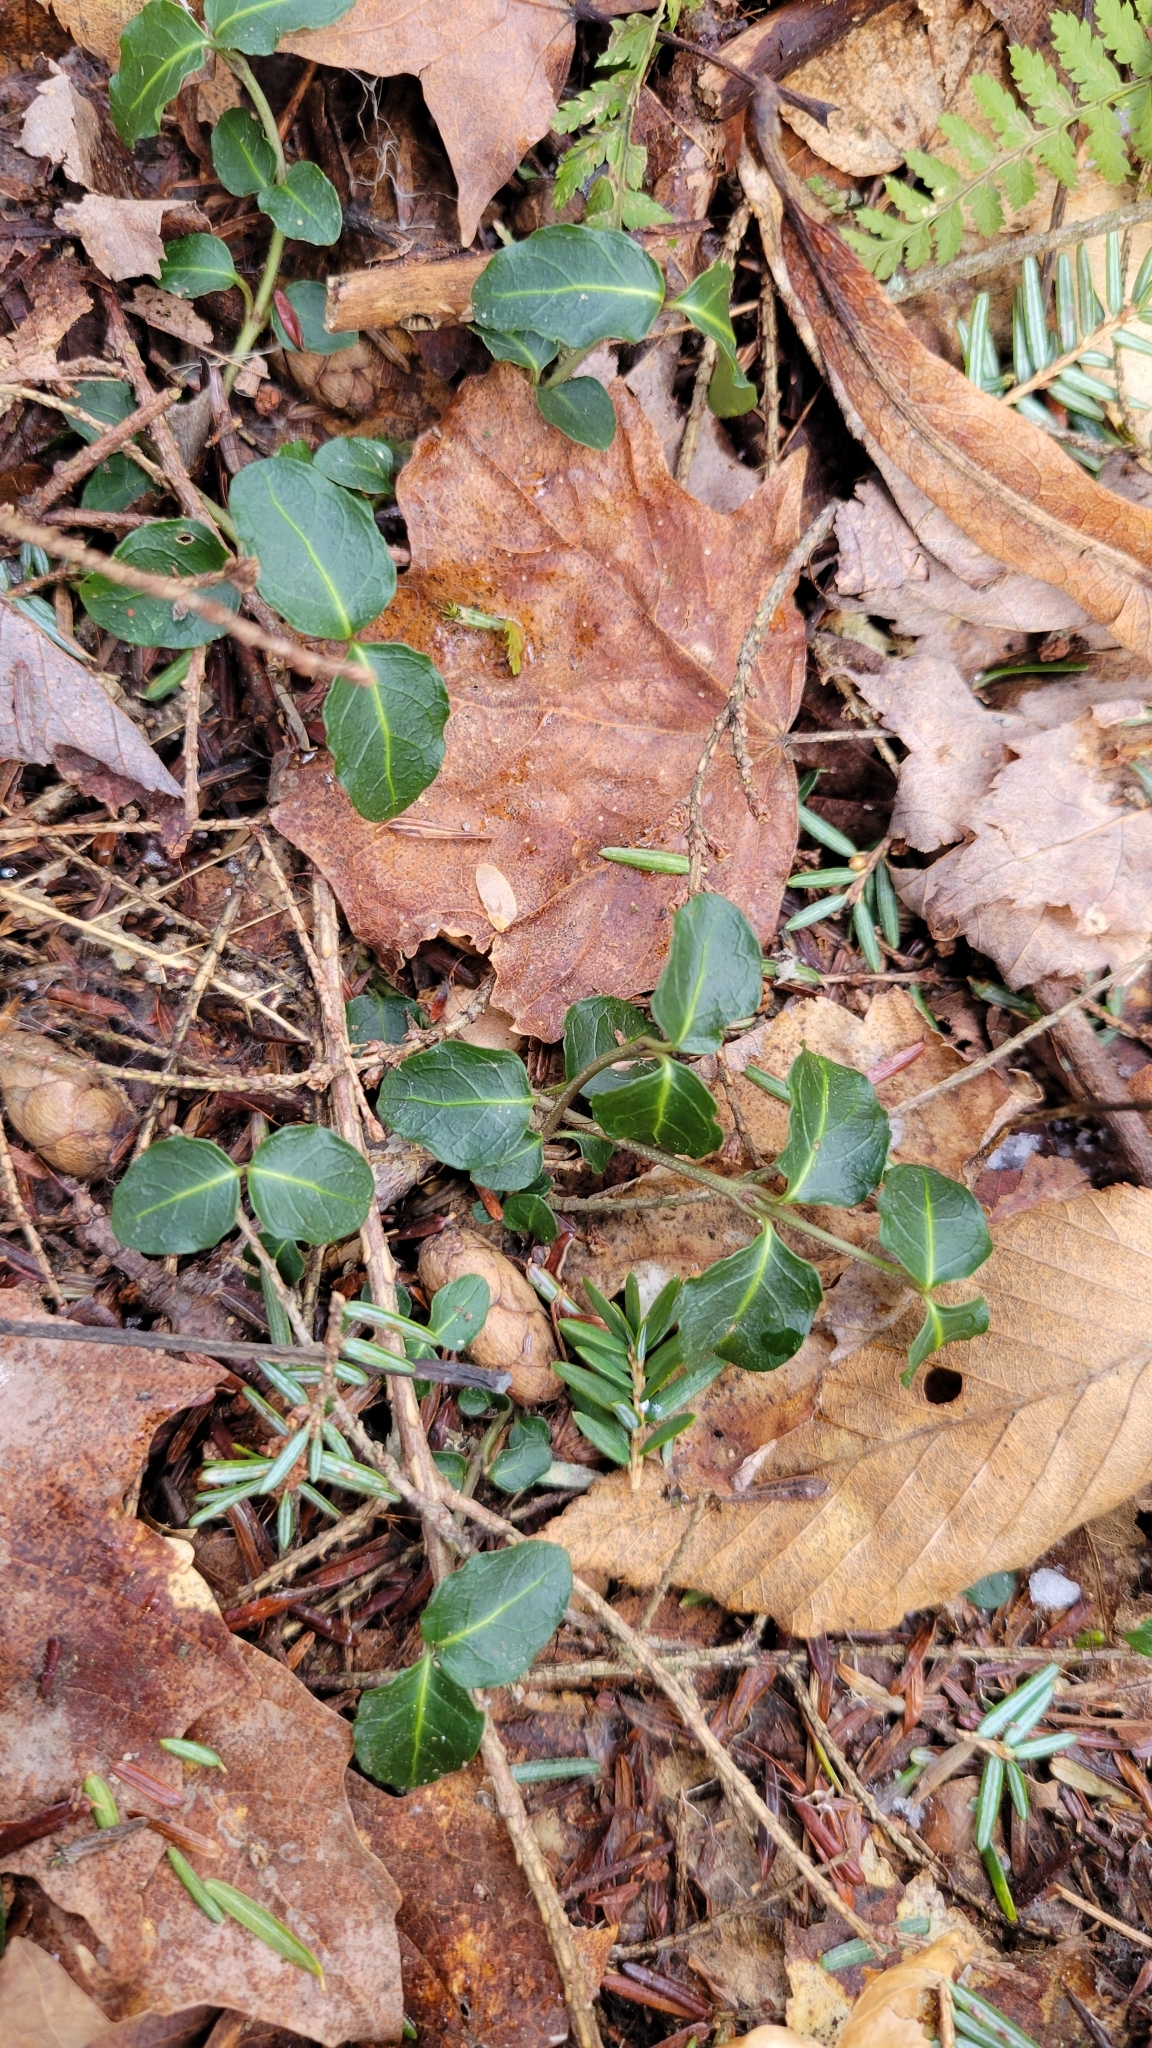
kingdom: Plantae
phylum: Tracheophyta
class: Magnoliopsida
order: Gentianales
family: Rubiaceae
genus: Mitchella
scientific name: Mitchella repens
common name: Partridge-berry
